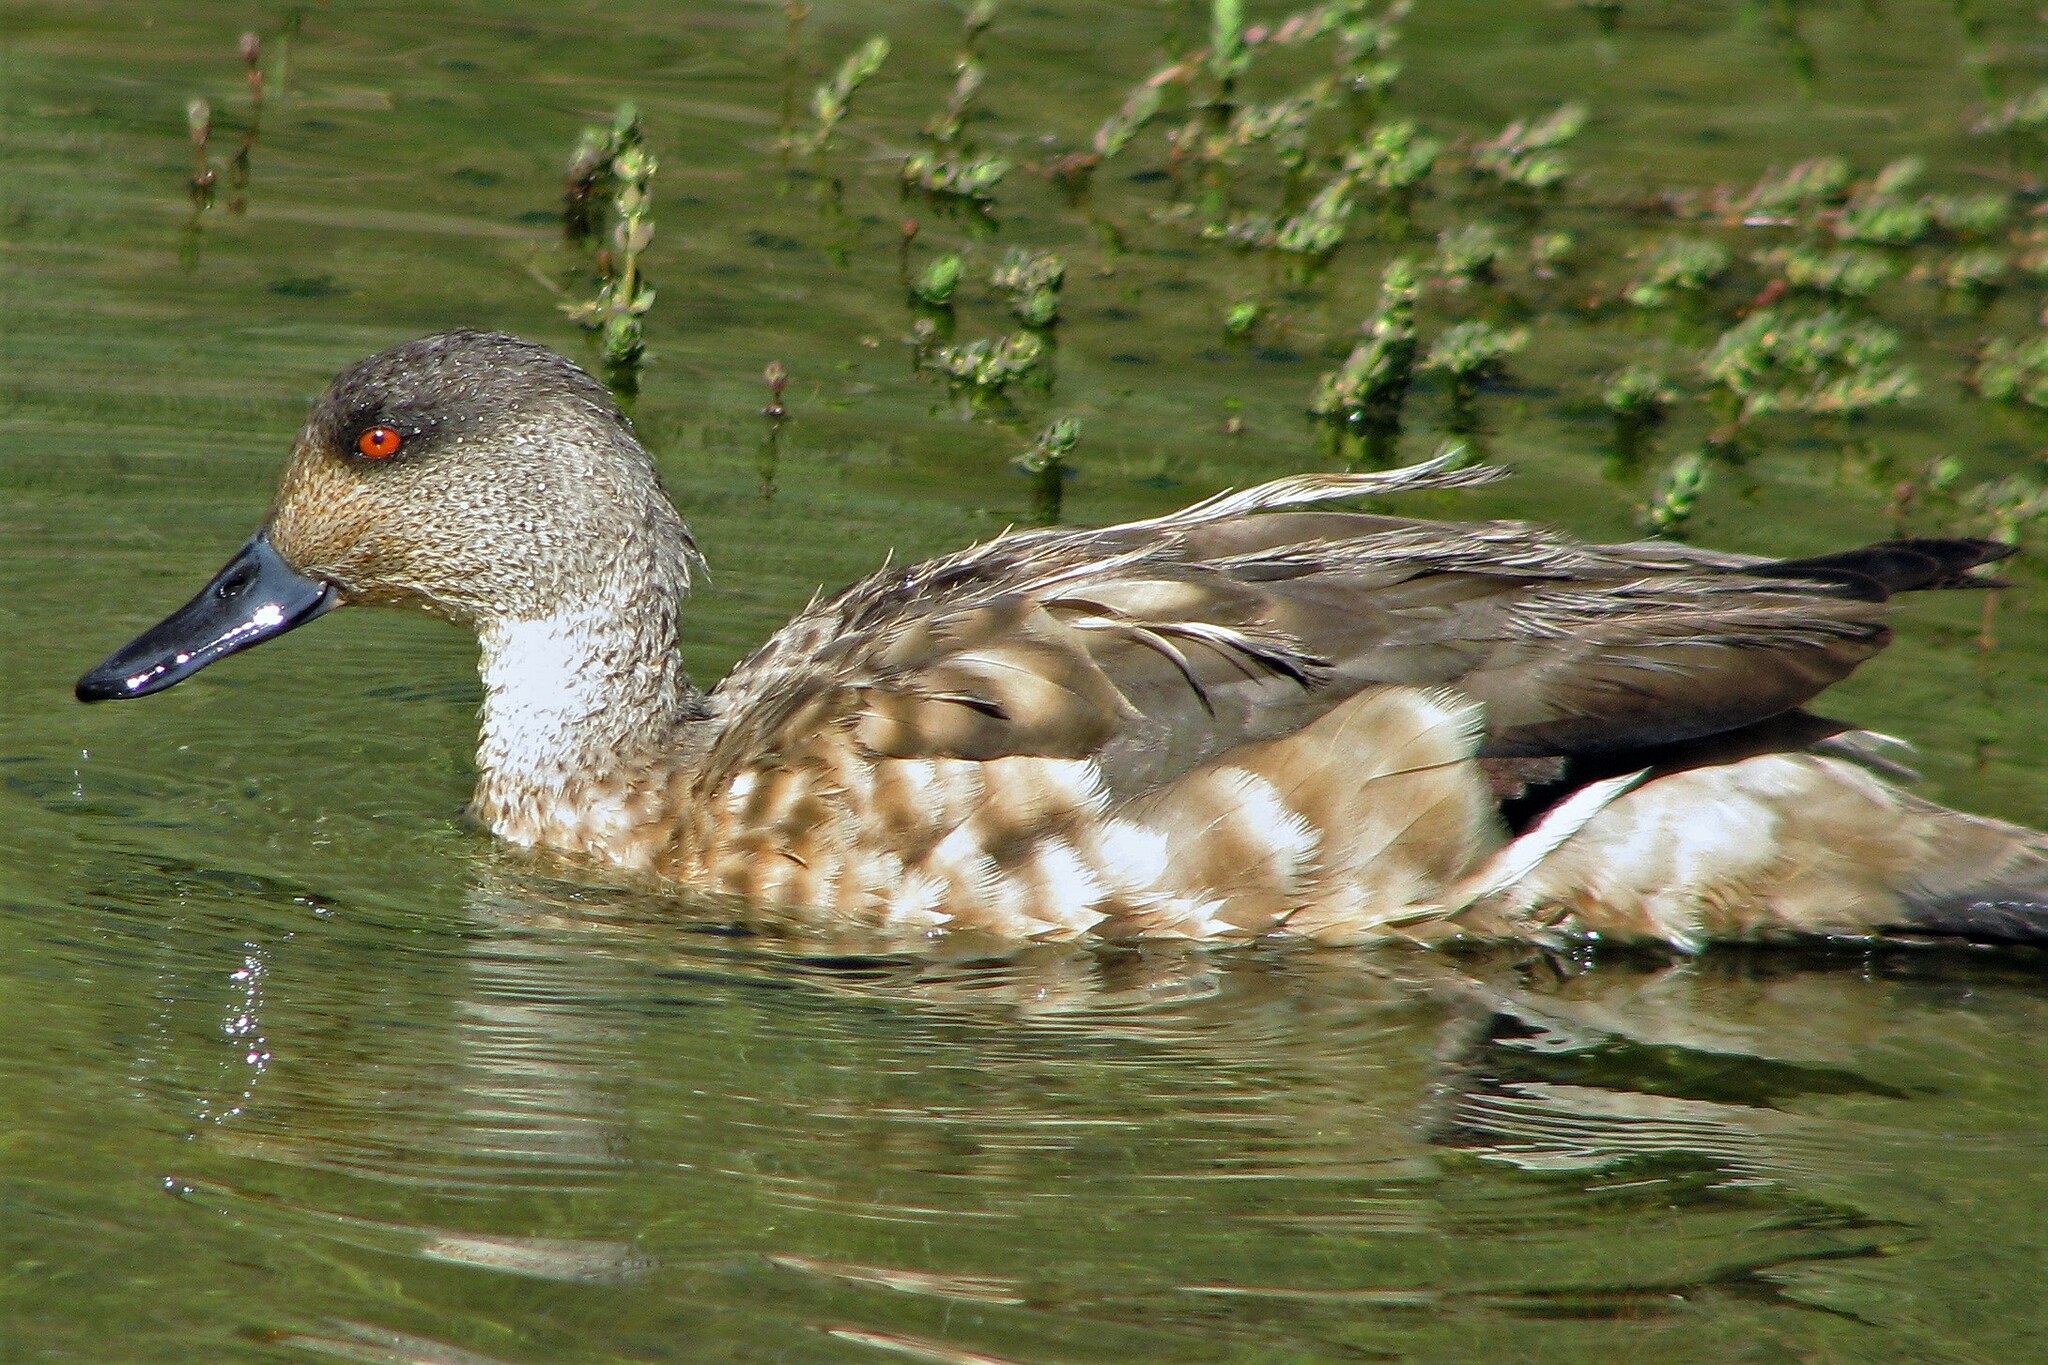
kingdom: Animalia
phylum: Chordata
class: Aves
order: Anseriformes
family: Anatidae
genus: Lophonetta
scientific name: Lophonetta specularioides
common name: Crested duck
